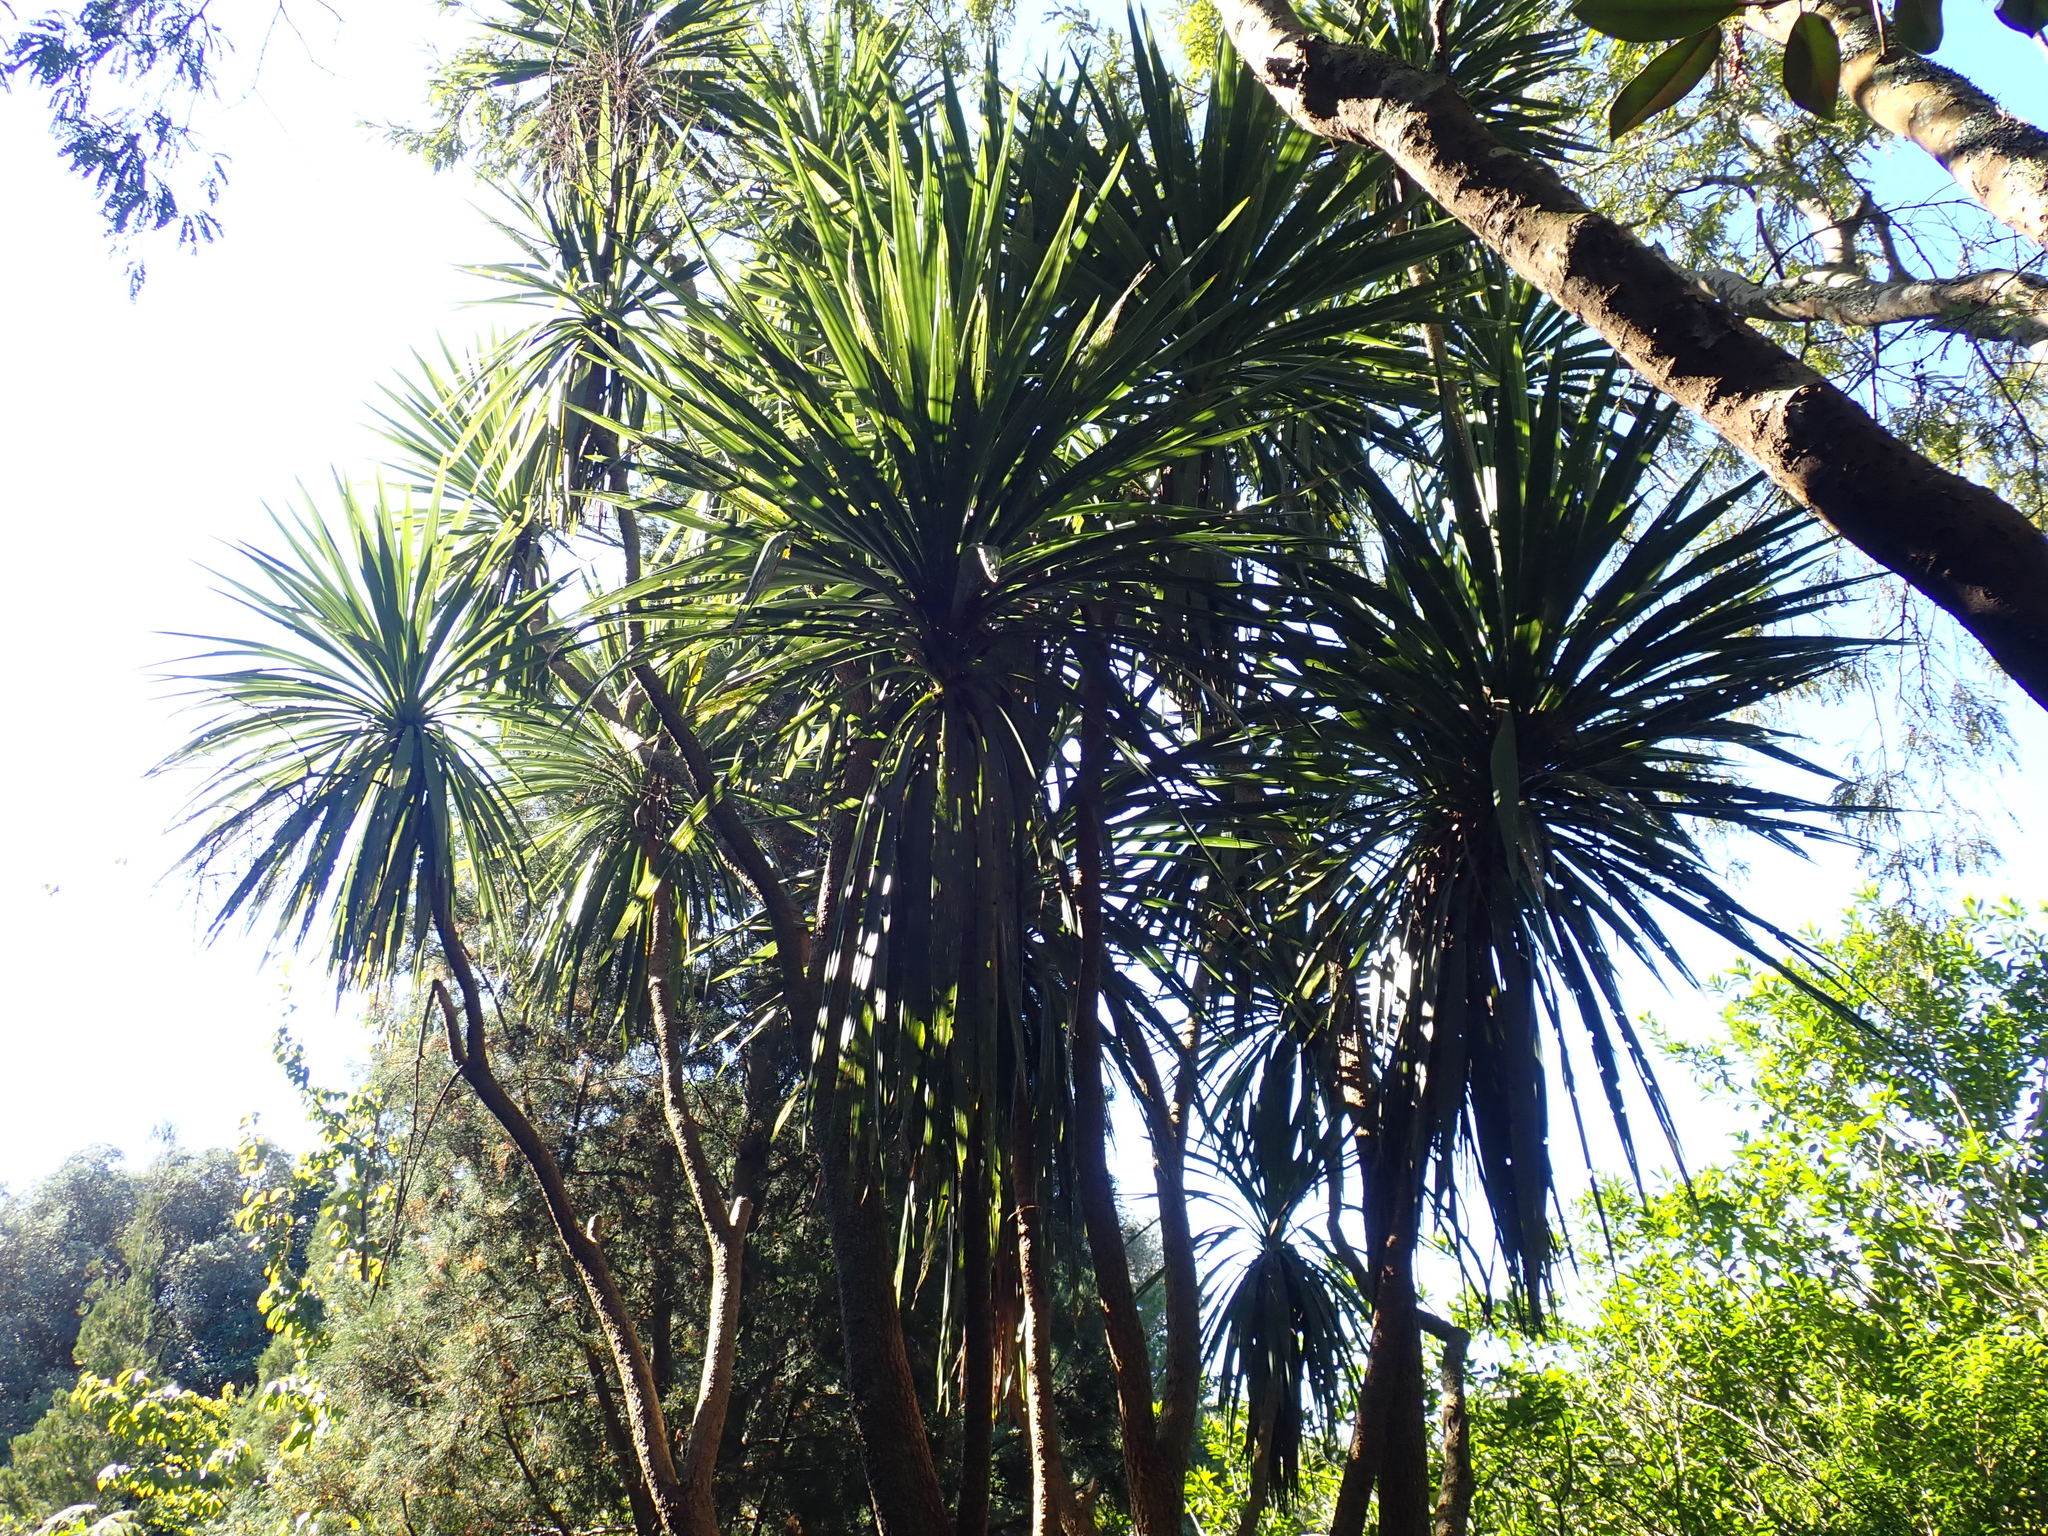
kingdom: Plantae
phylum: Tracheophyta
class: Liliopsida
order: Asparagales
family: Asparagaceae
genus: Cordyline
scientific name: Cordyline australis
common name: Cabbage-palm
